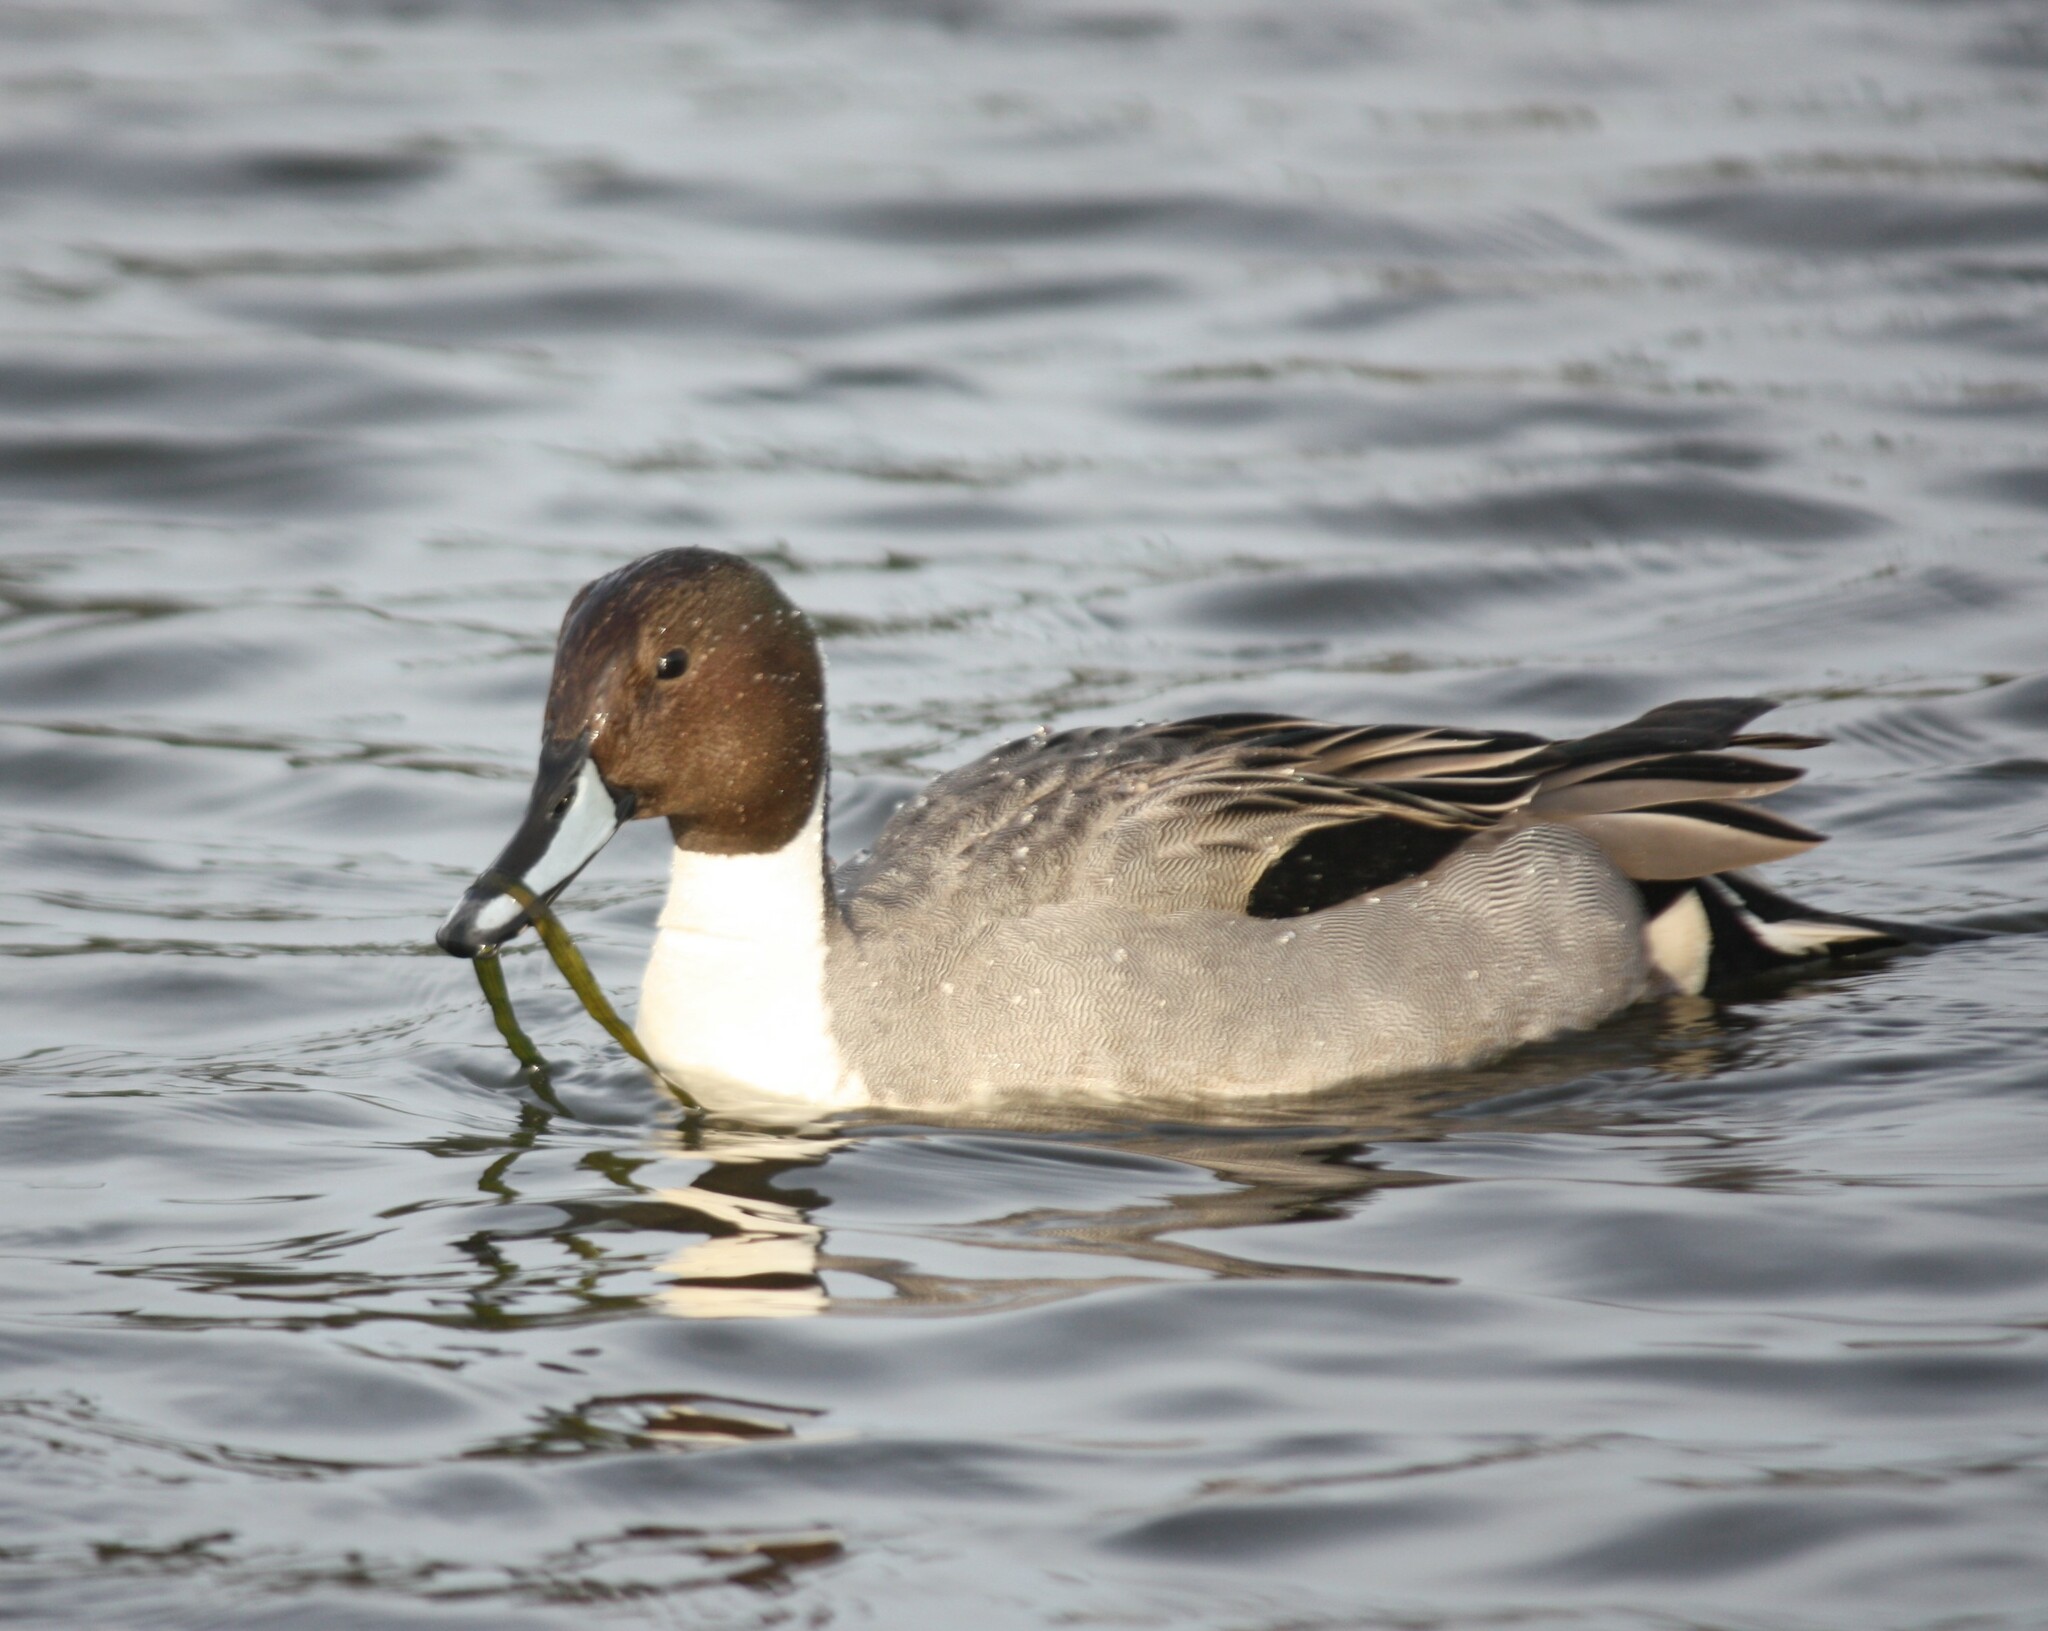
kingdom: Animalia
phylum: Chordata
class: Aves
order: Anseriformes
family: Anatidae
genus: Anas
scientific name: Anas acuta
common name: Northern pintail
